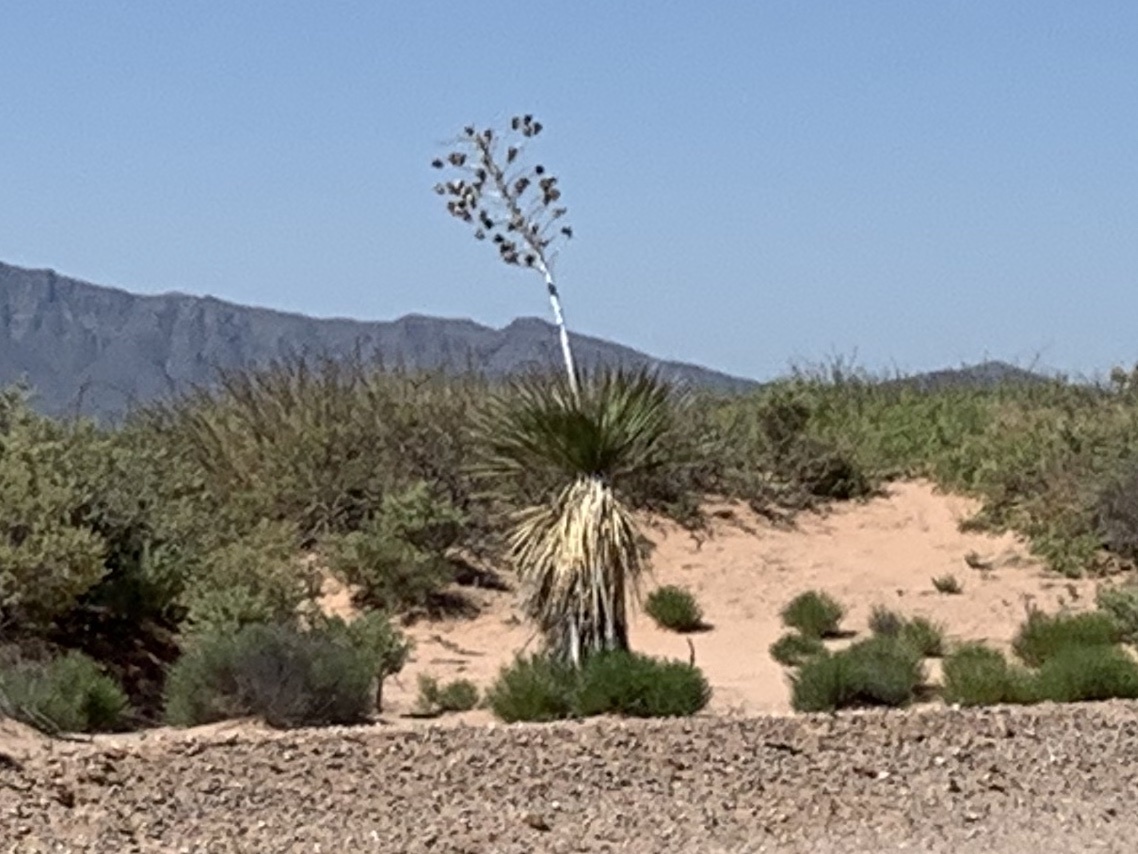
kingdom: Plantae
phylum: Tracheophyta
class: Liliopsida
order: Asparagales
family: Asparagaceae
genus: Yucca
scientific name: Yucca elata
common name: Palmella
